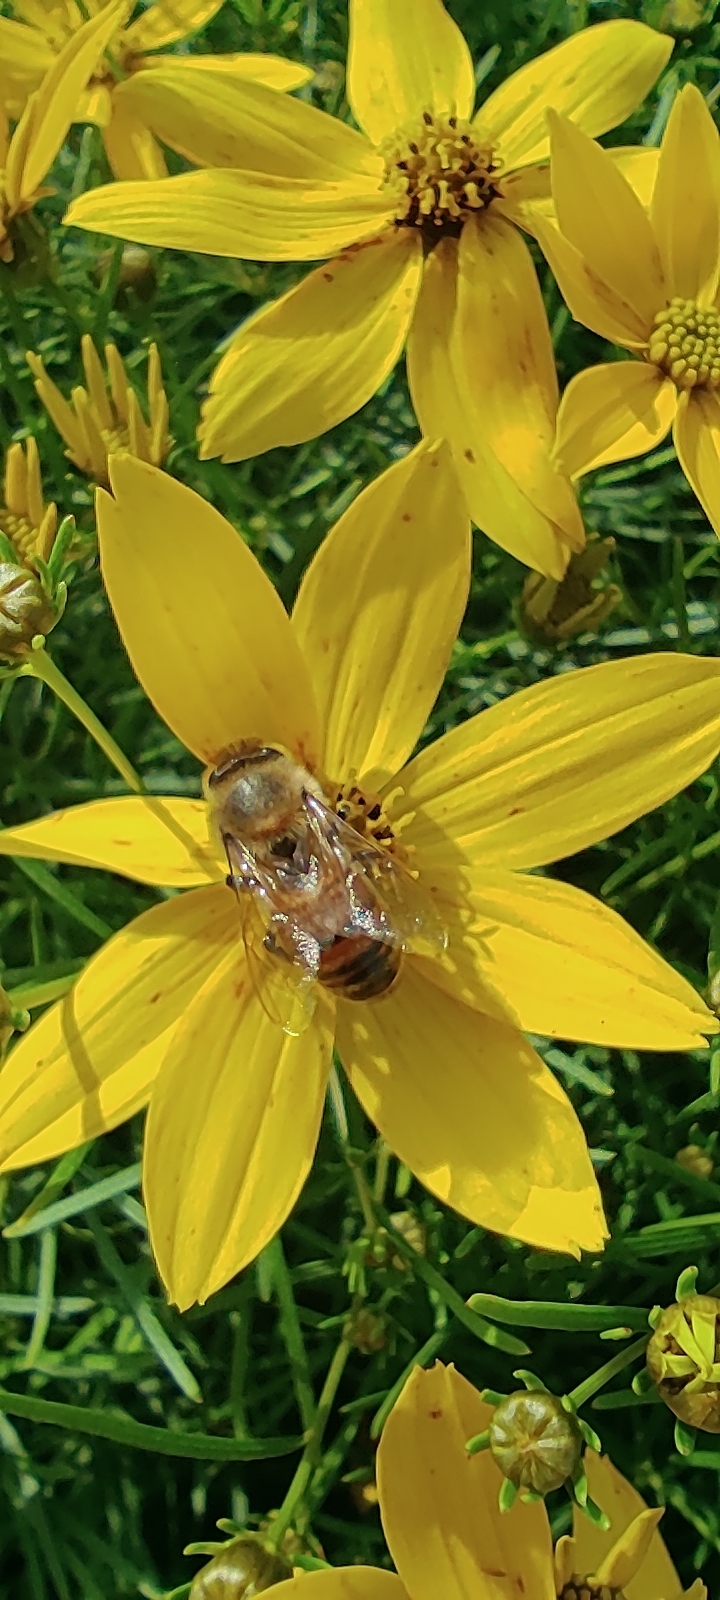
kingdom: Animalia
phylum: Arthropoda
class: Insecta
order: Hymenoptera
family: Apidae
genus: Apis
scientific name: Apis mellifera
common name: Honey bee
